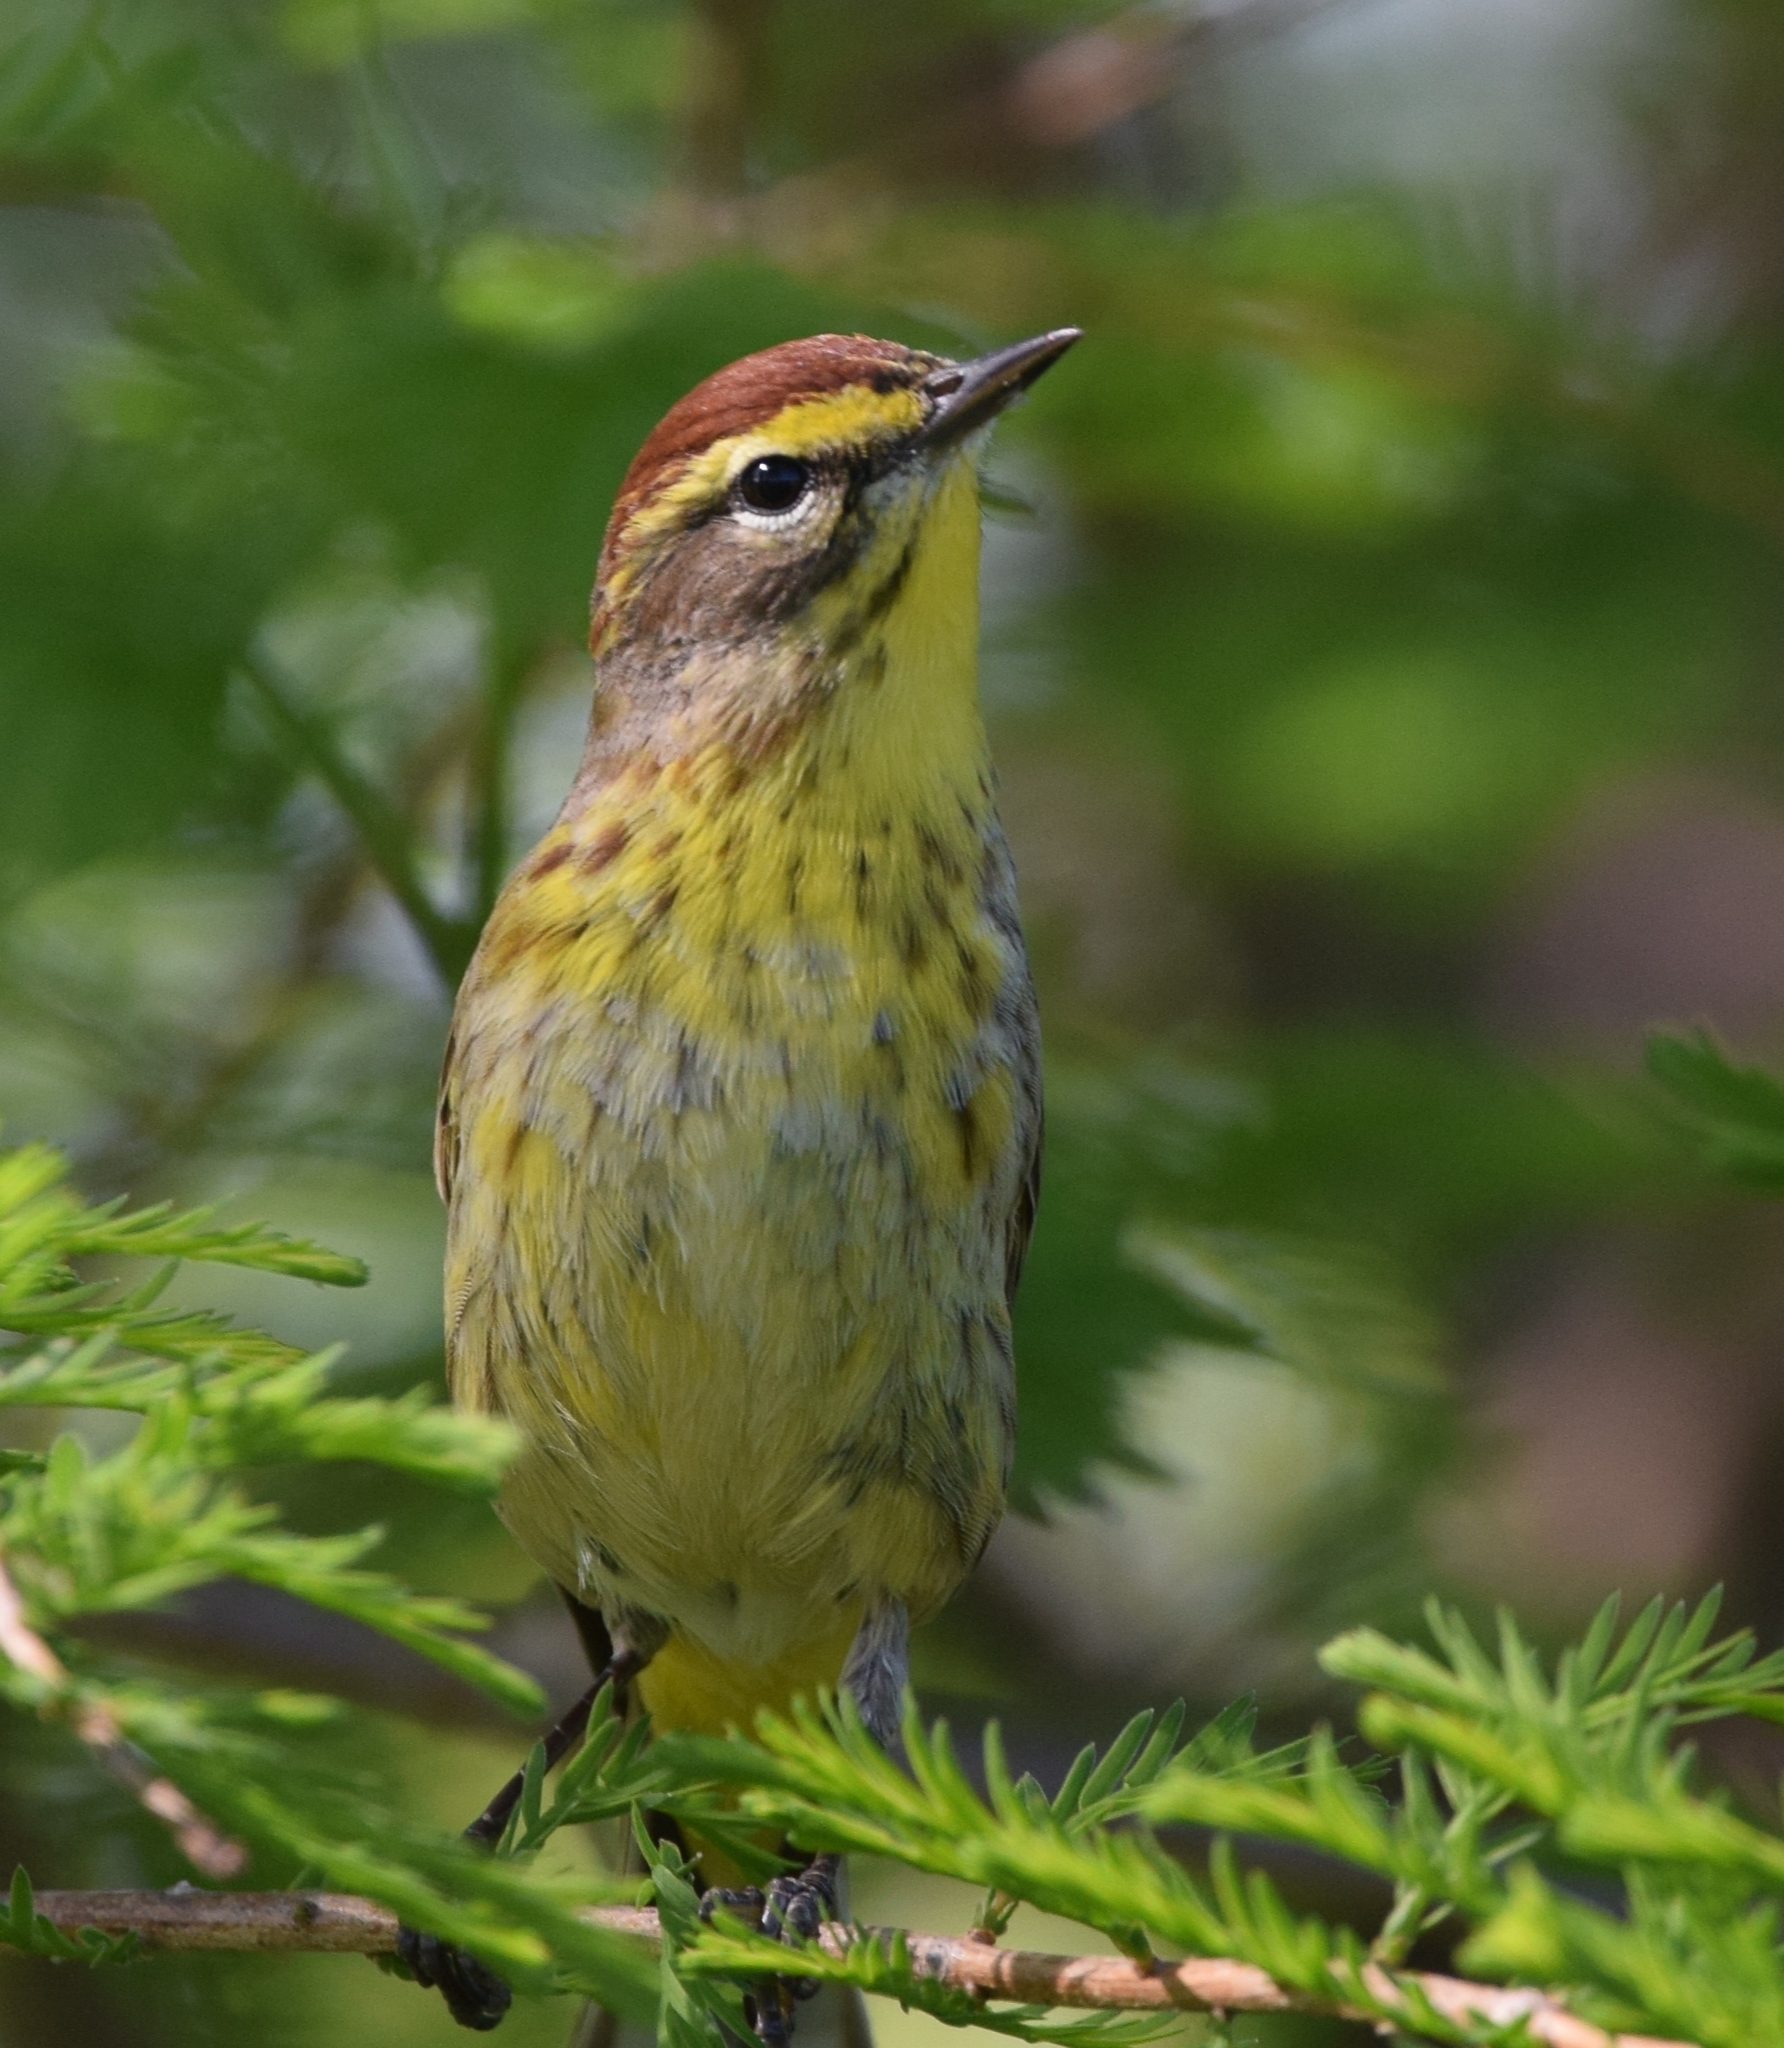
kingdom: Animalia
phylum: Chordata
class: Aves
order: Passeriformes
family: Parulidae
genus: Setophaga
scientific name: Setophaga palmarum
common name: Palm warbler
